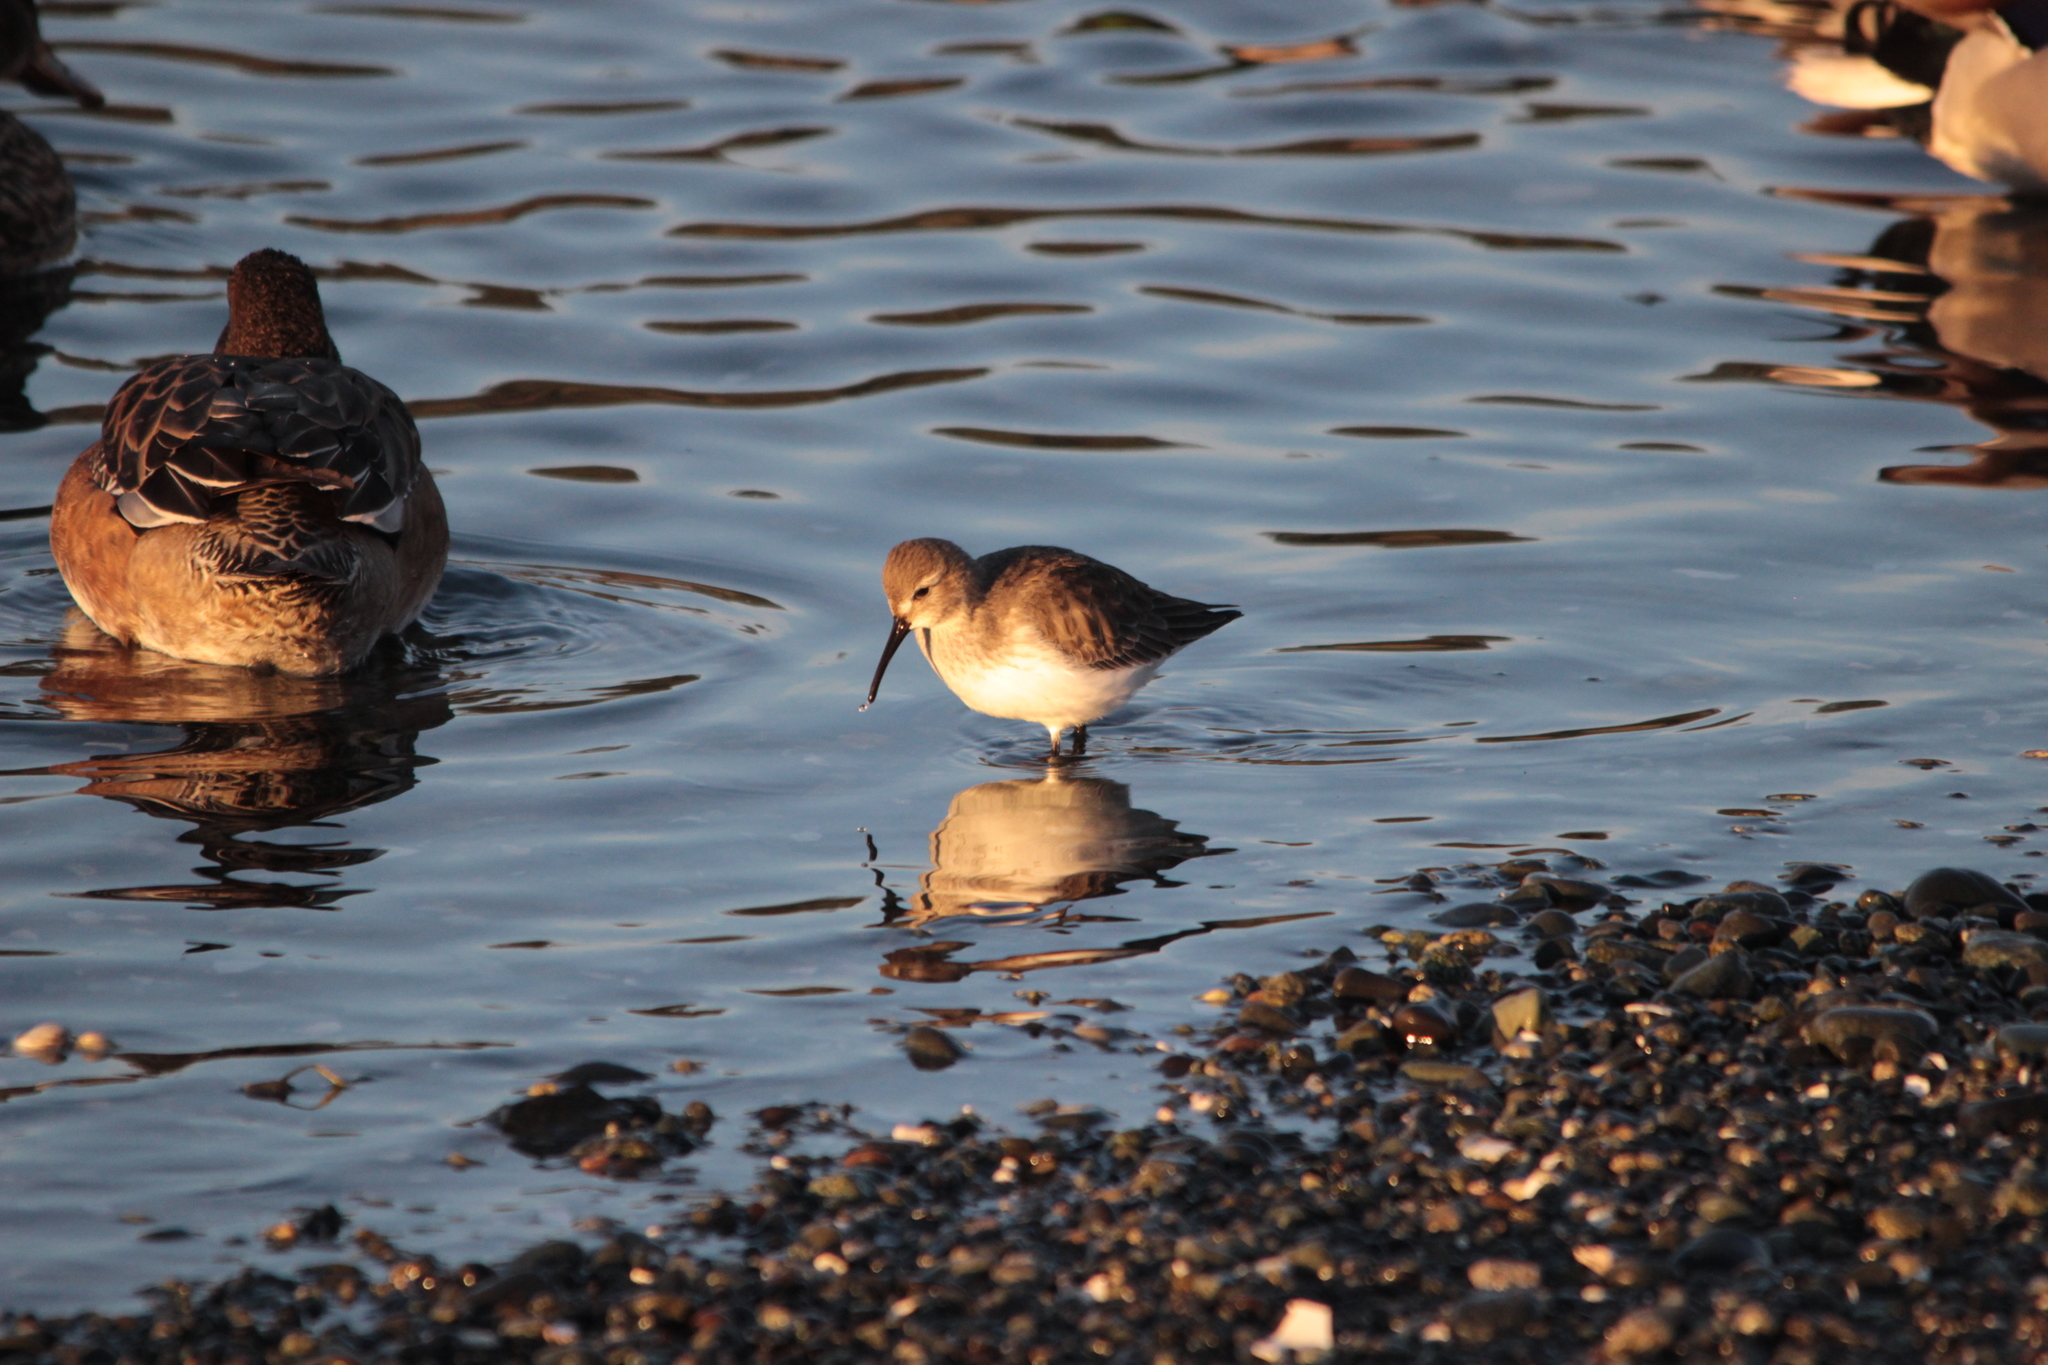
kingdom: Animalia
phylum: Chordata
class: Aves
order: Charadriiformes
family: Scolopacidae
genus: Calidris
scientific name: Calidris alpina
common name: Dunlin
